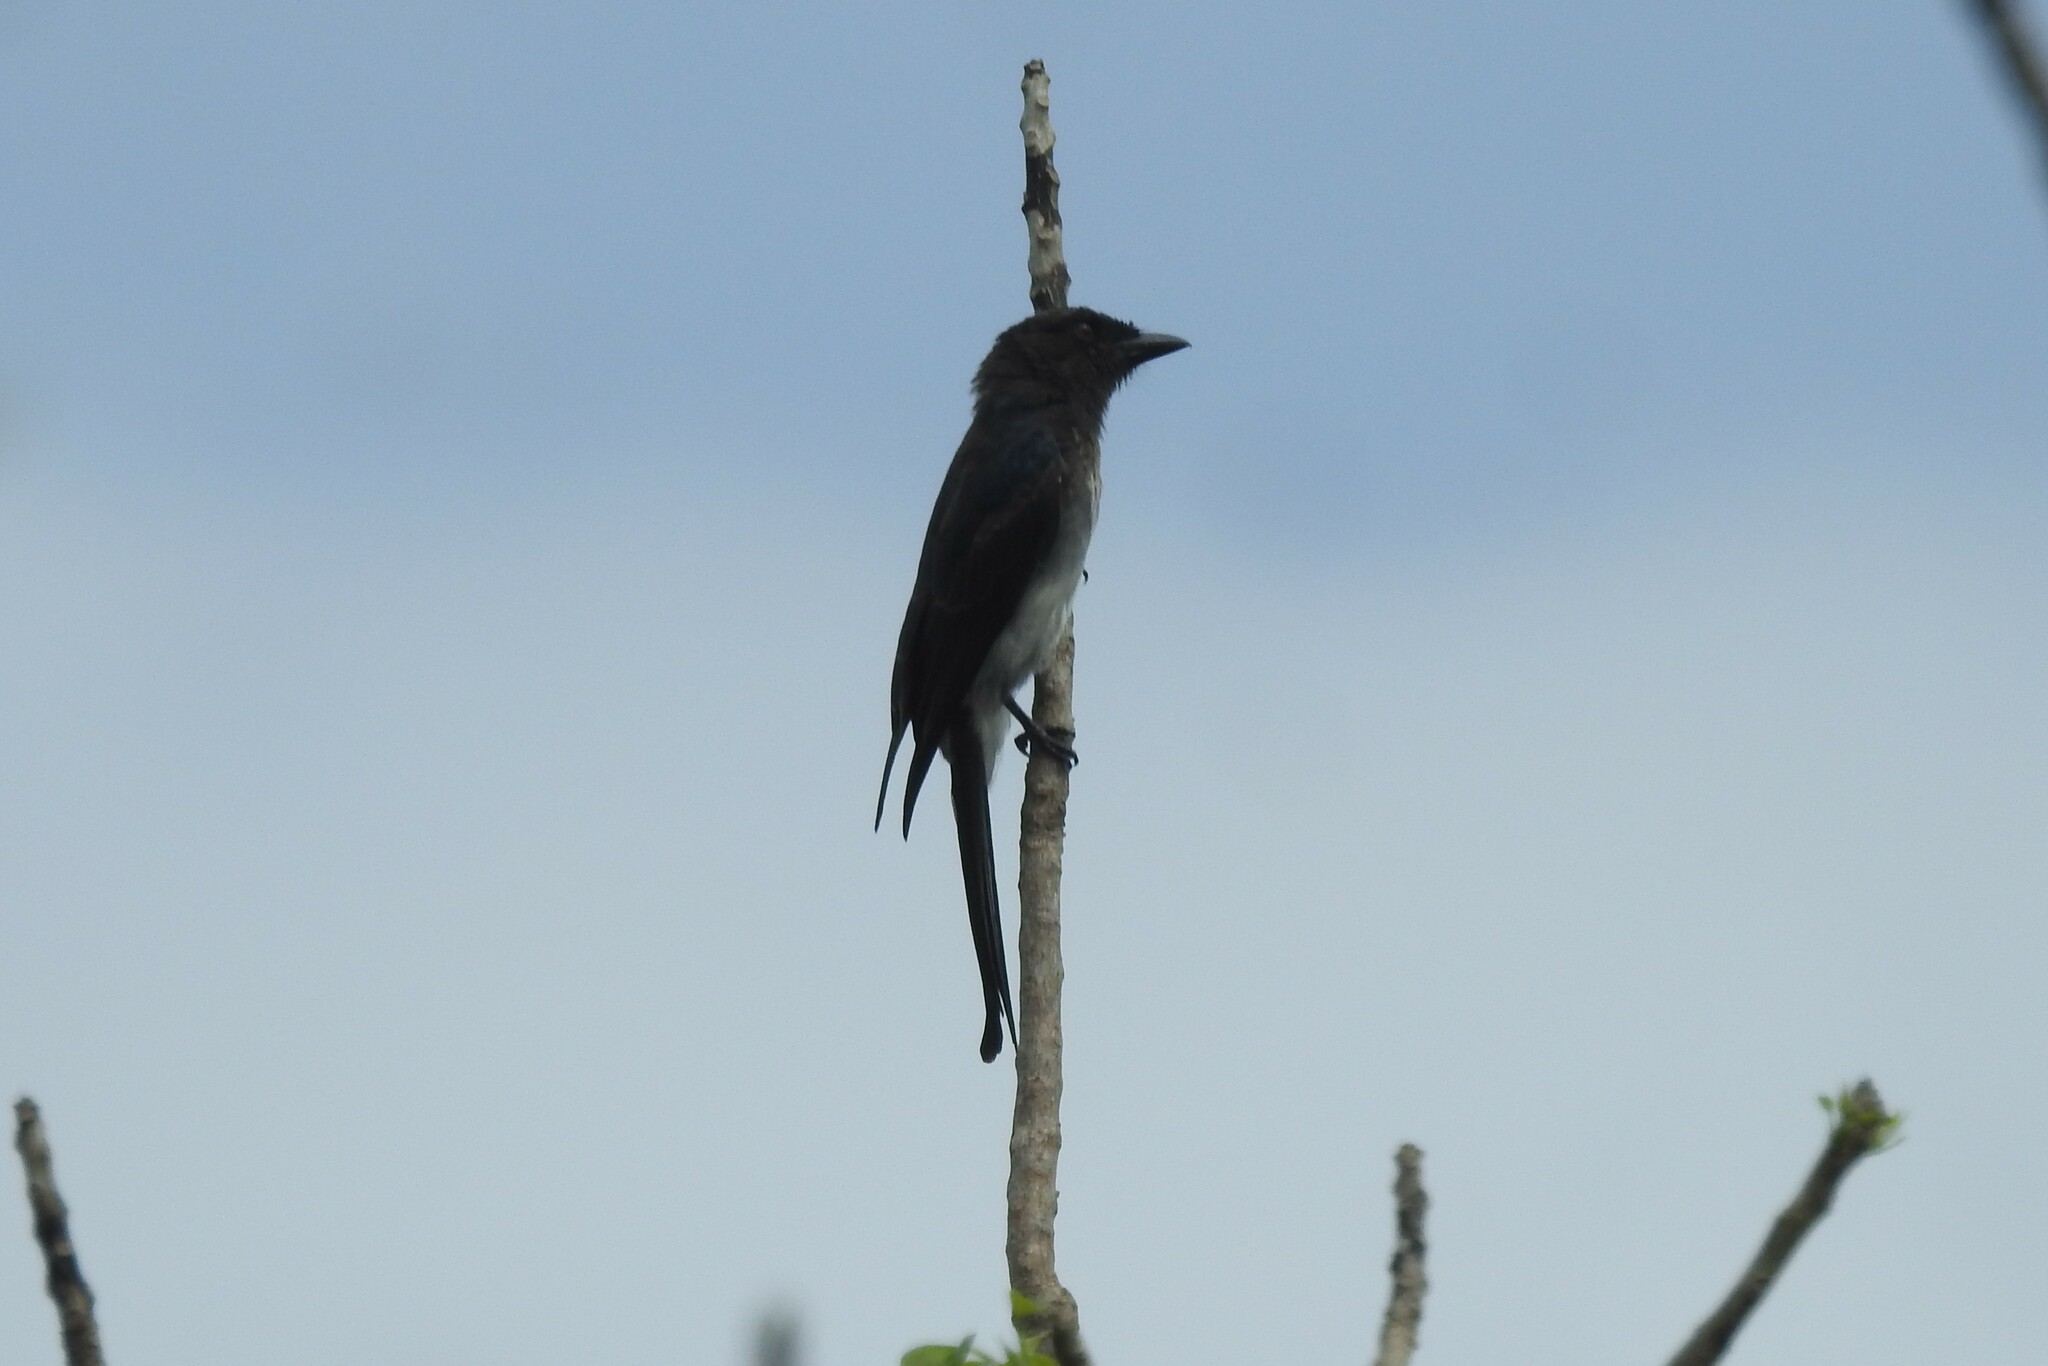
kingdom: Animalia
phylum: Chordata
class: Aves
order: Passeriformes
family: Dicruridae
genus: Dicrurus
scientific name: Dicrurus caerulescens
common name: White-bellied drongo
